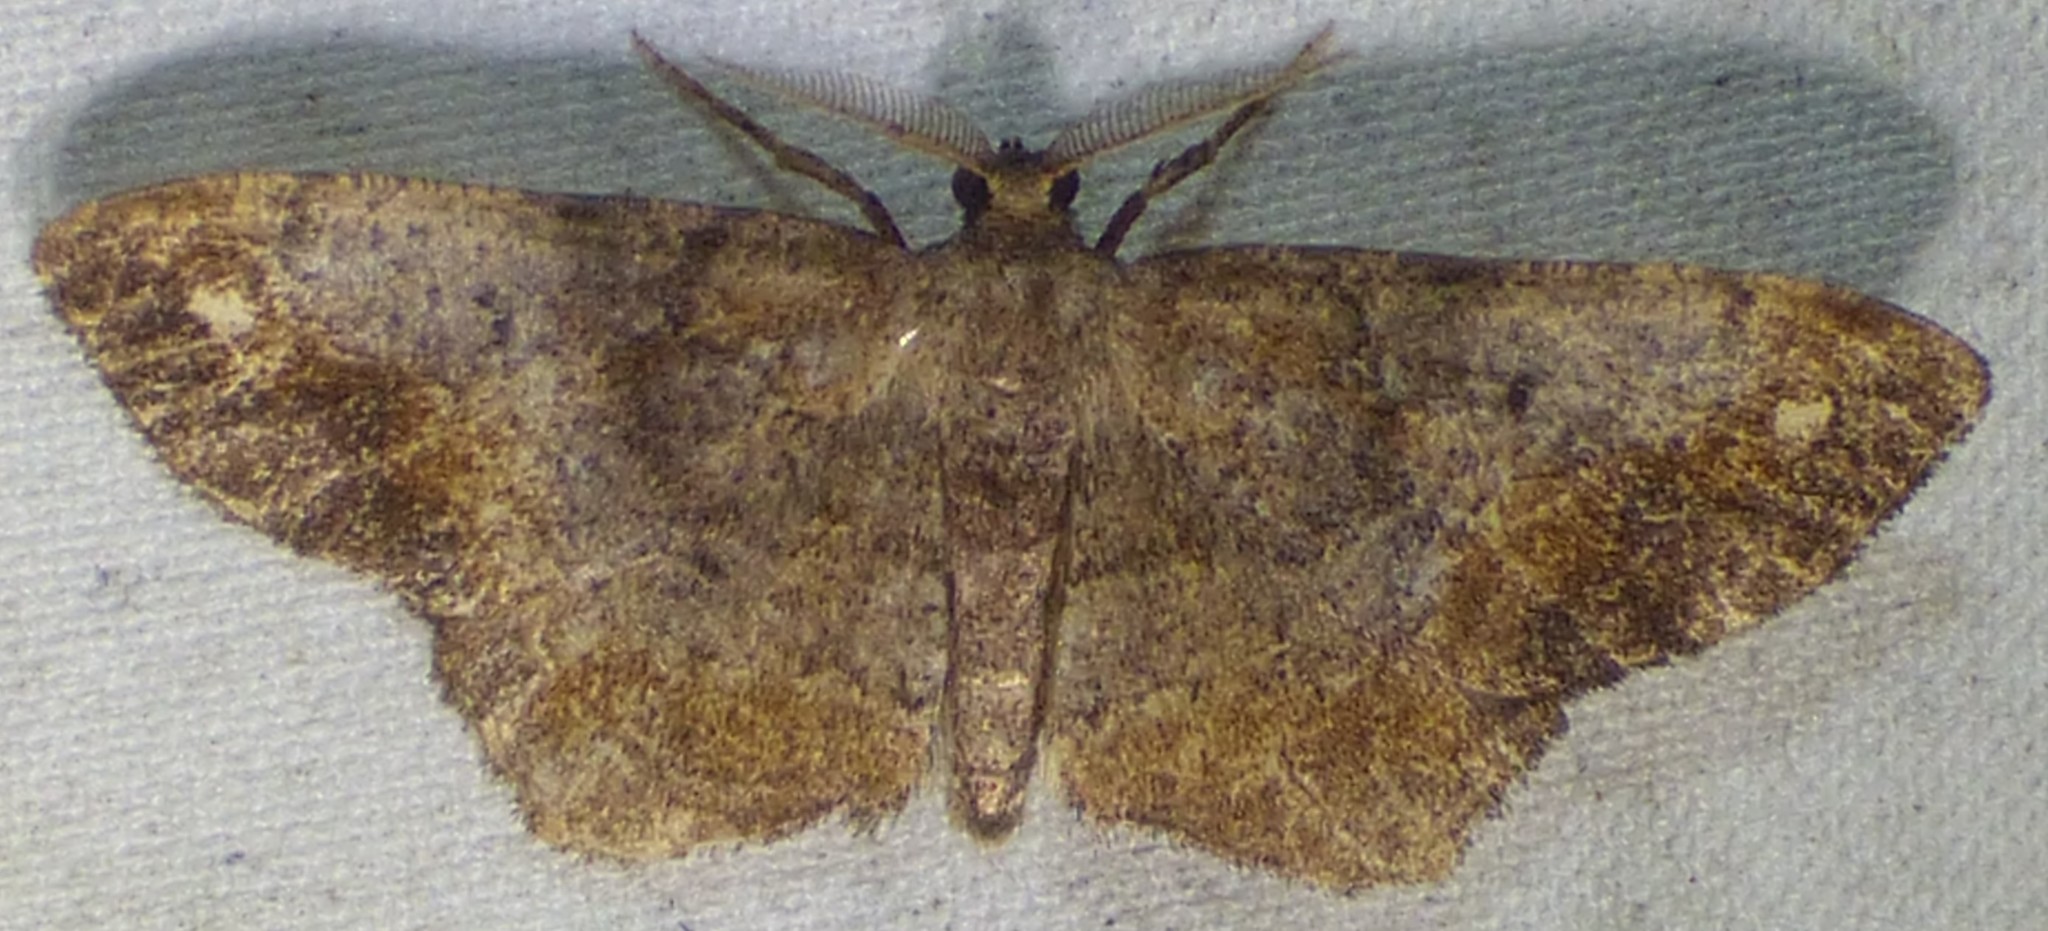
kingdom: Animalia
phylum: Arthropoda
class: Insecta
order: Lepidoptera
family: Geometridae
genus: Hypagyrtis
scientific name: Hypagyrtis unipunctata
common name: One-spotted variant
